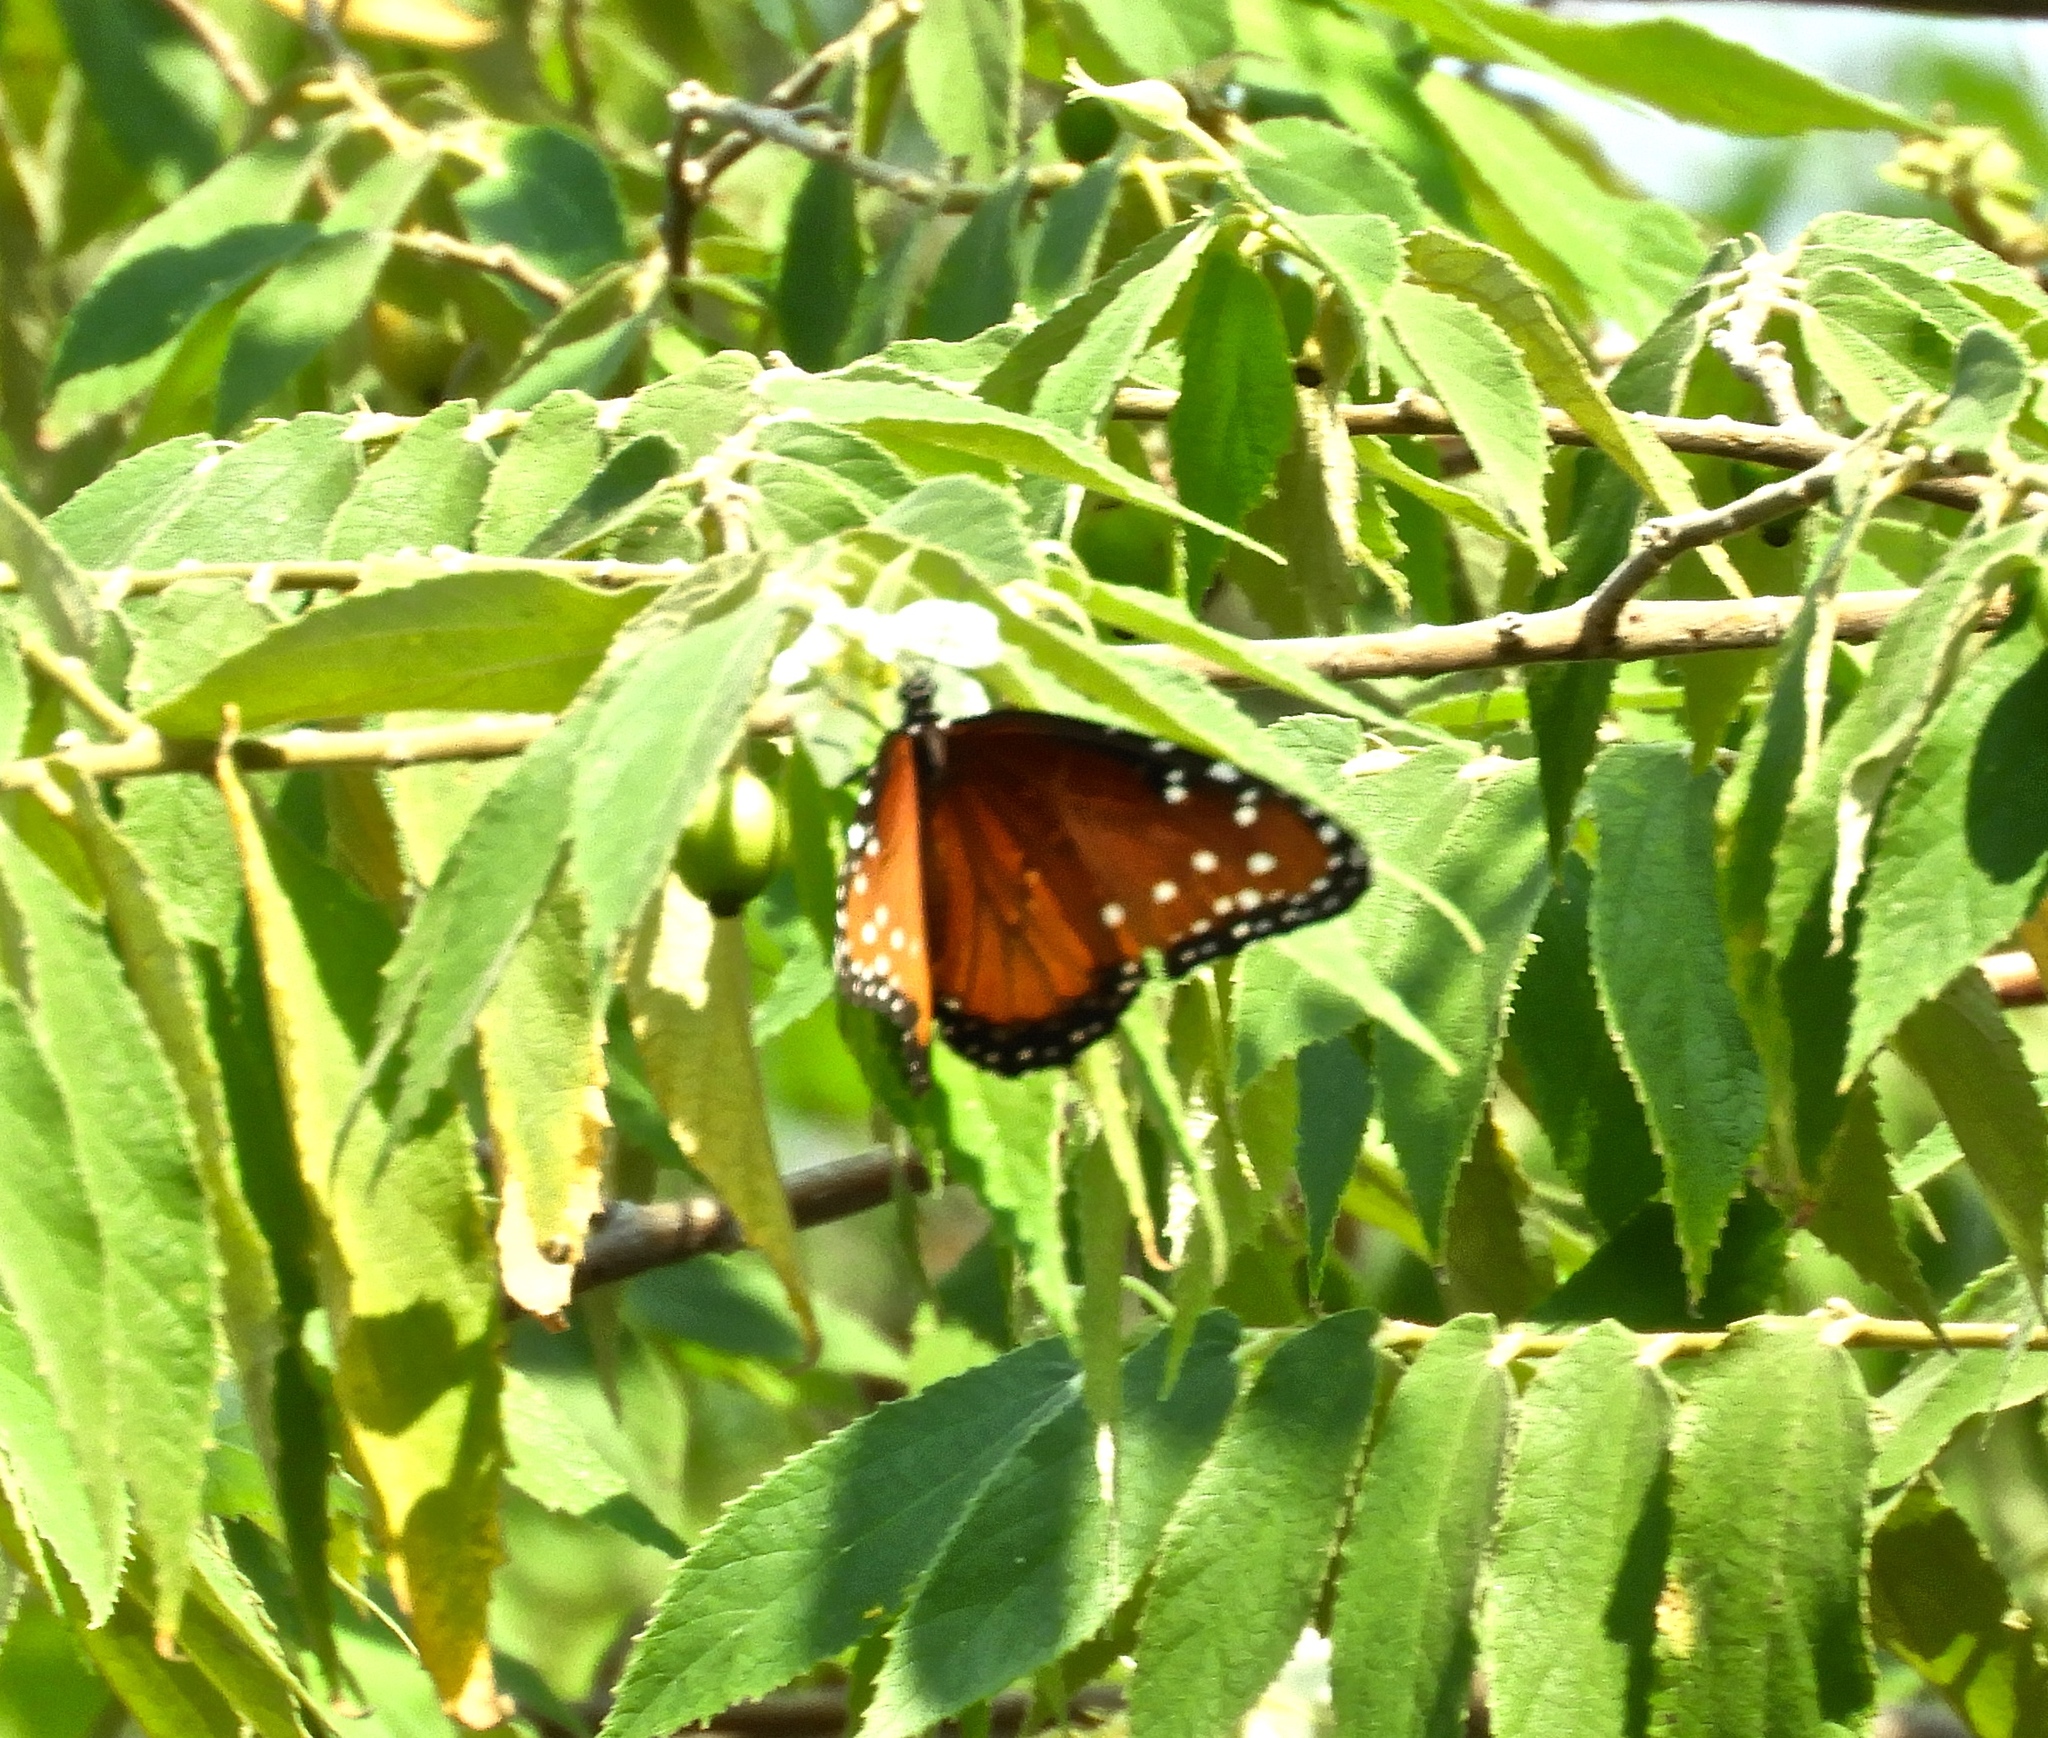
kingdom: Animalia
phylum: Arthropoda
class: Insecta
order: Lepidoptera
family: Nymphalidae
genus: Danaus
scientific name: Danaus gilippus
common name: Queen
